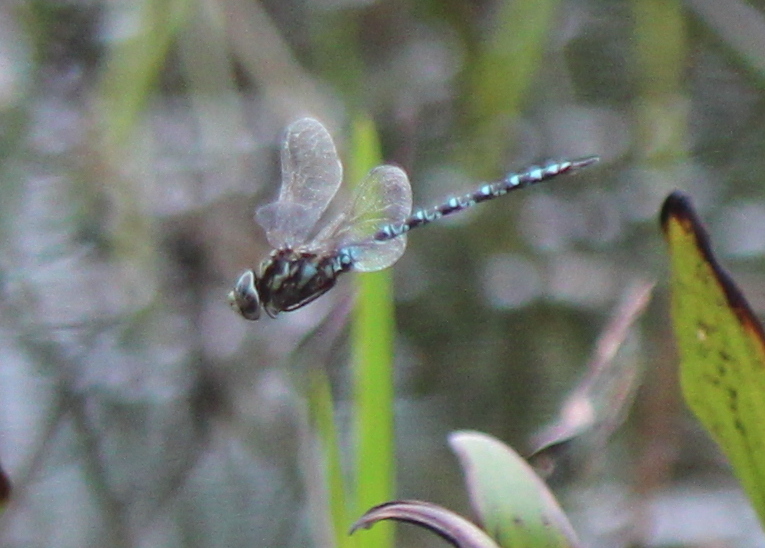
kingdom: Animalia
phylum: Arthropoda
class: Insecta
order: Odonata
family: Aeshnidae
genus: Aeshna
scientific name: Aeshna clepsydra
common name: Mottled darner
